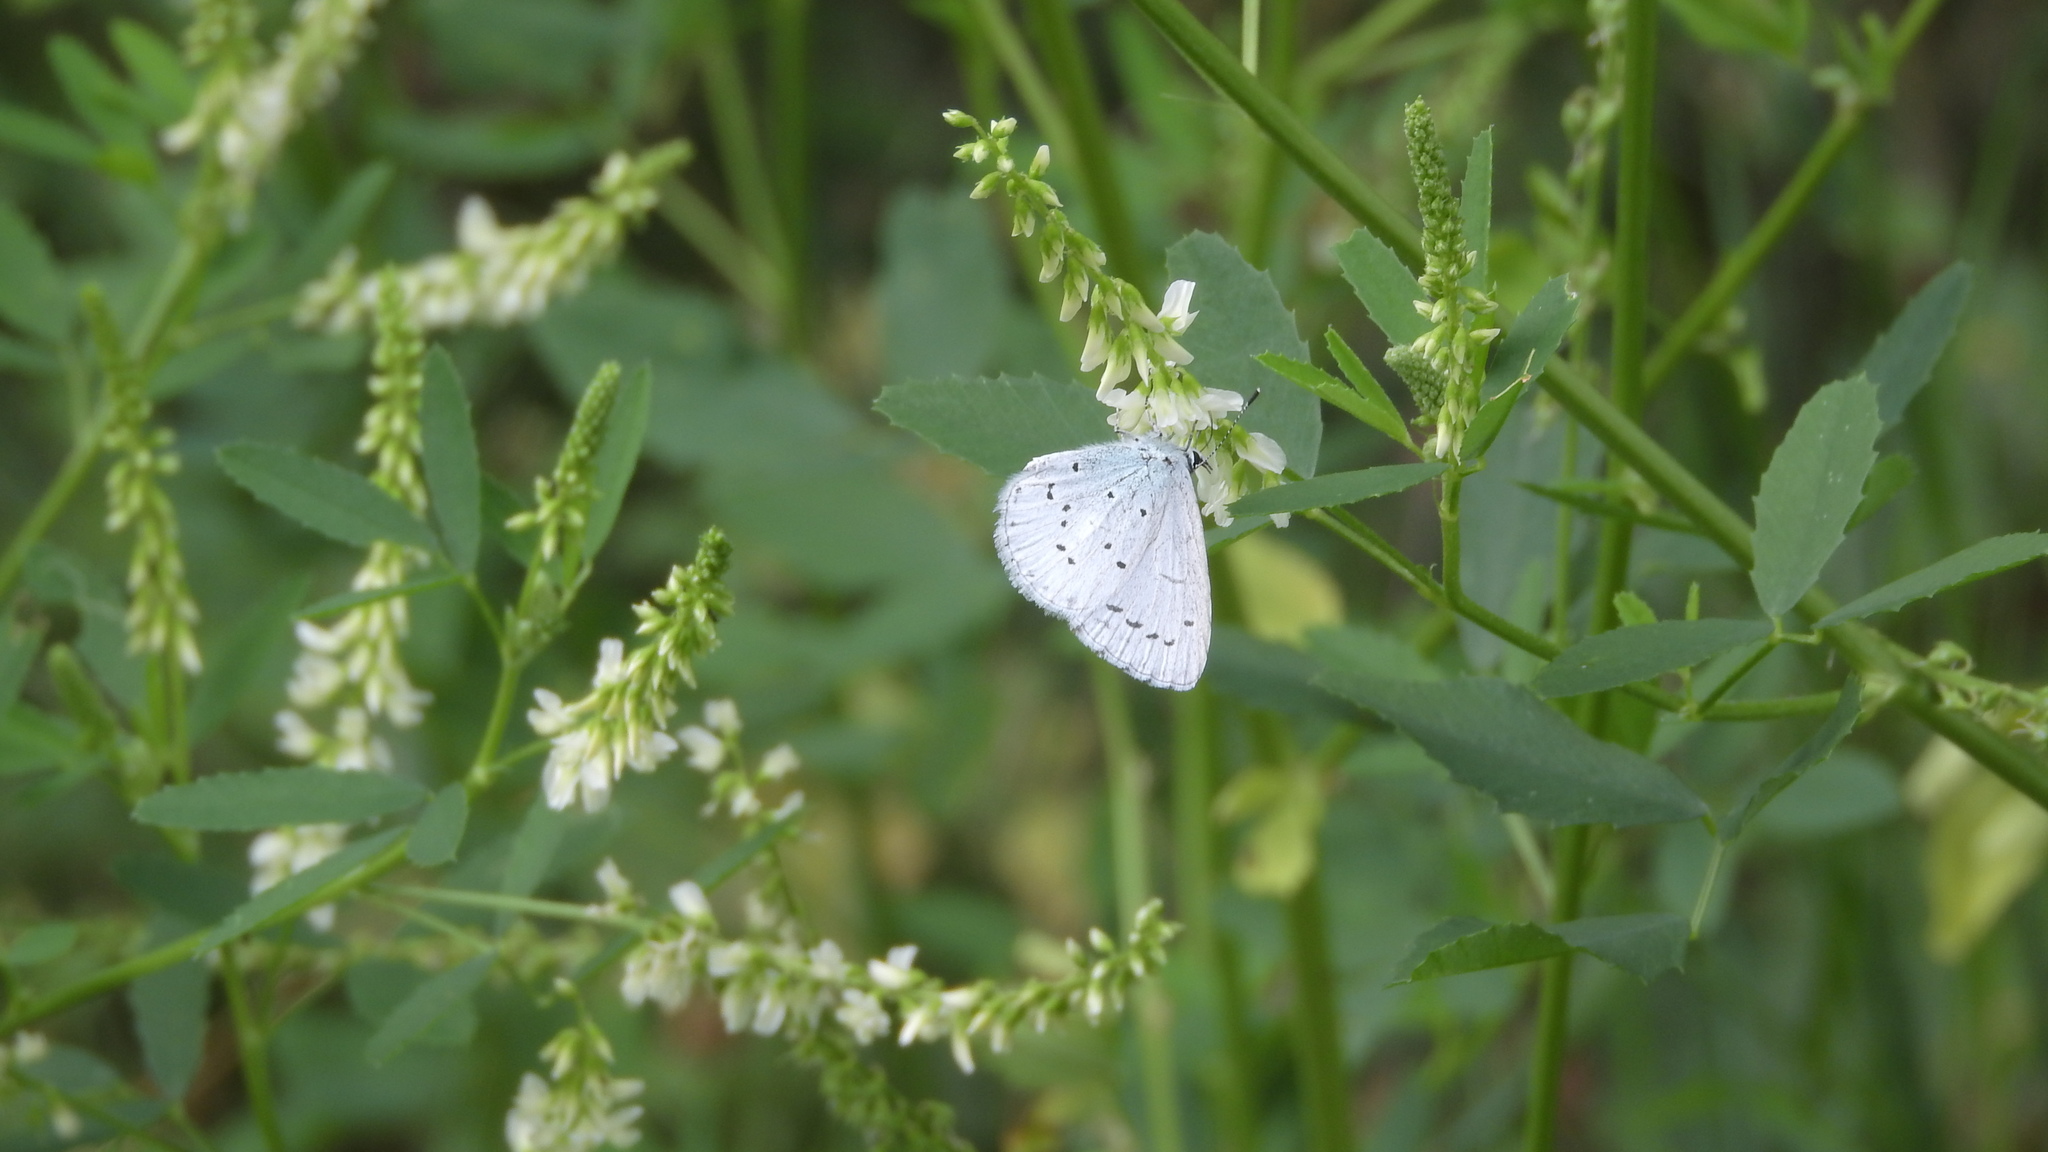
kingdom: Animalia
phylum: Arthropoda
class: Insecta
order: Lepidoptera
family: Lycaenidae
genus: Celastrina
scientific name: Celastrina argiolus
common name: Holly blue
